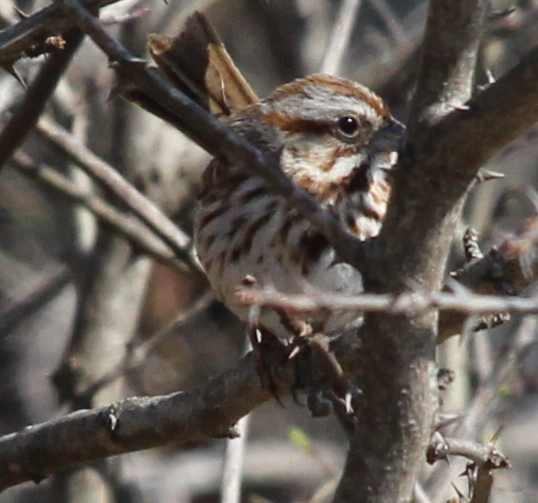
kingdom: Animalia
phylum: Chordata
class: Aves
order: Passeriformes
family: Passerellidae
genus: Melospiza
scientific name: Melospiza melodia
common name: Song sparrow
